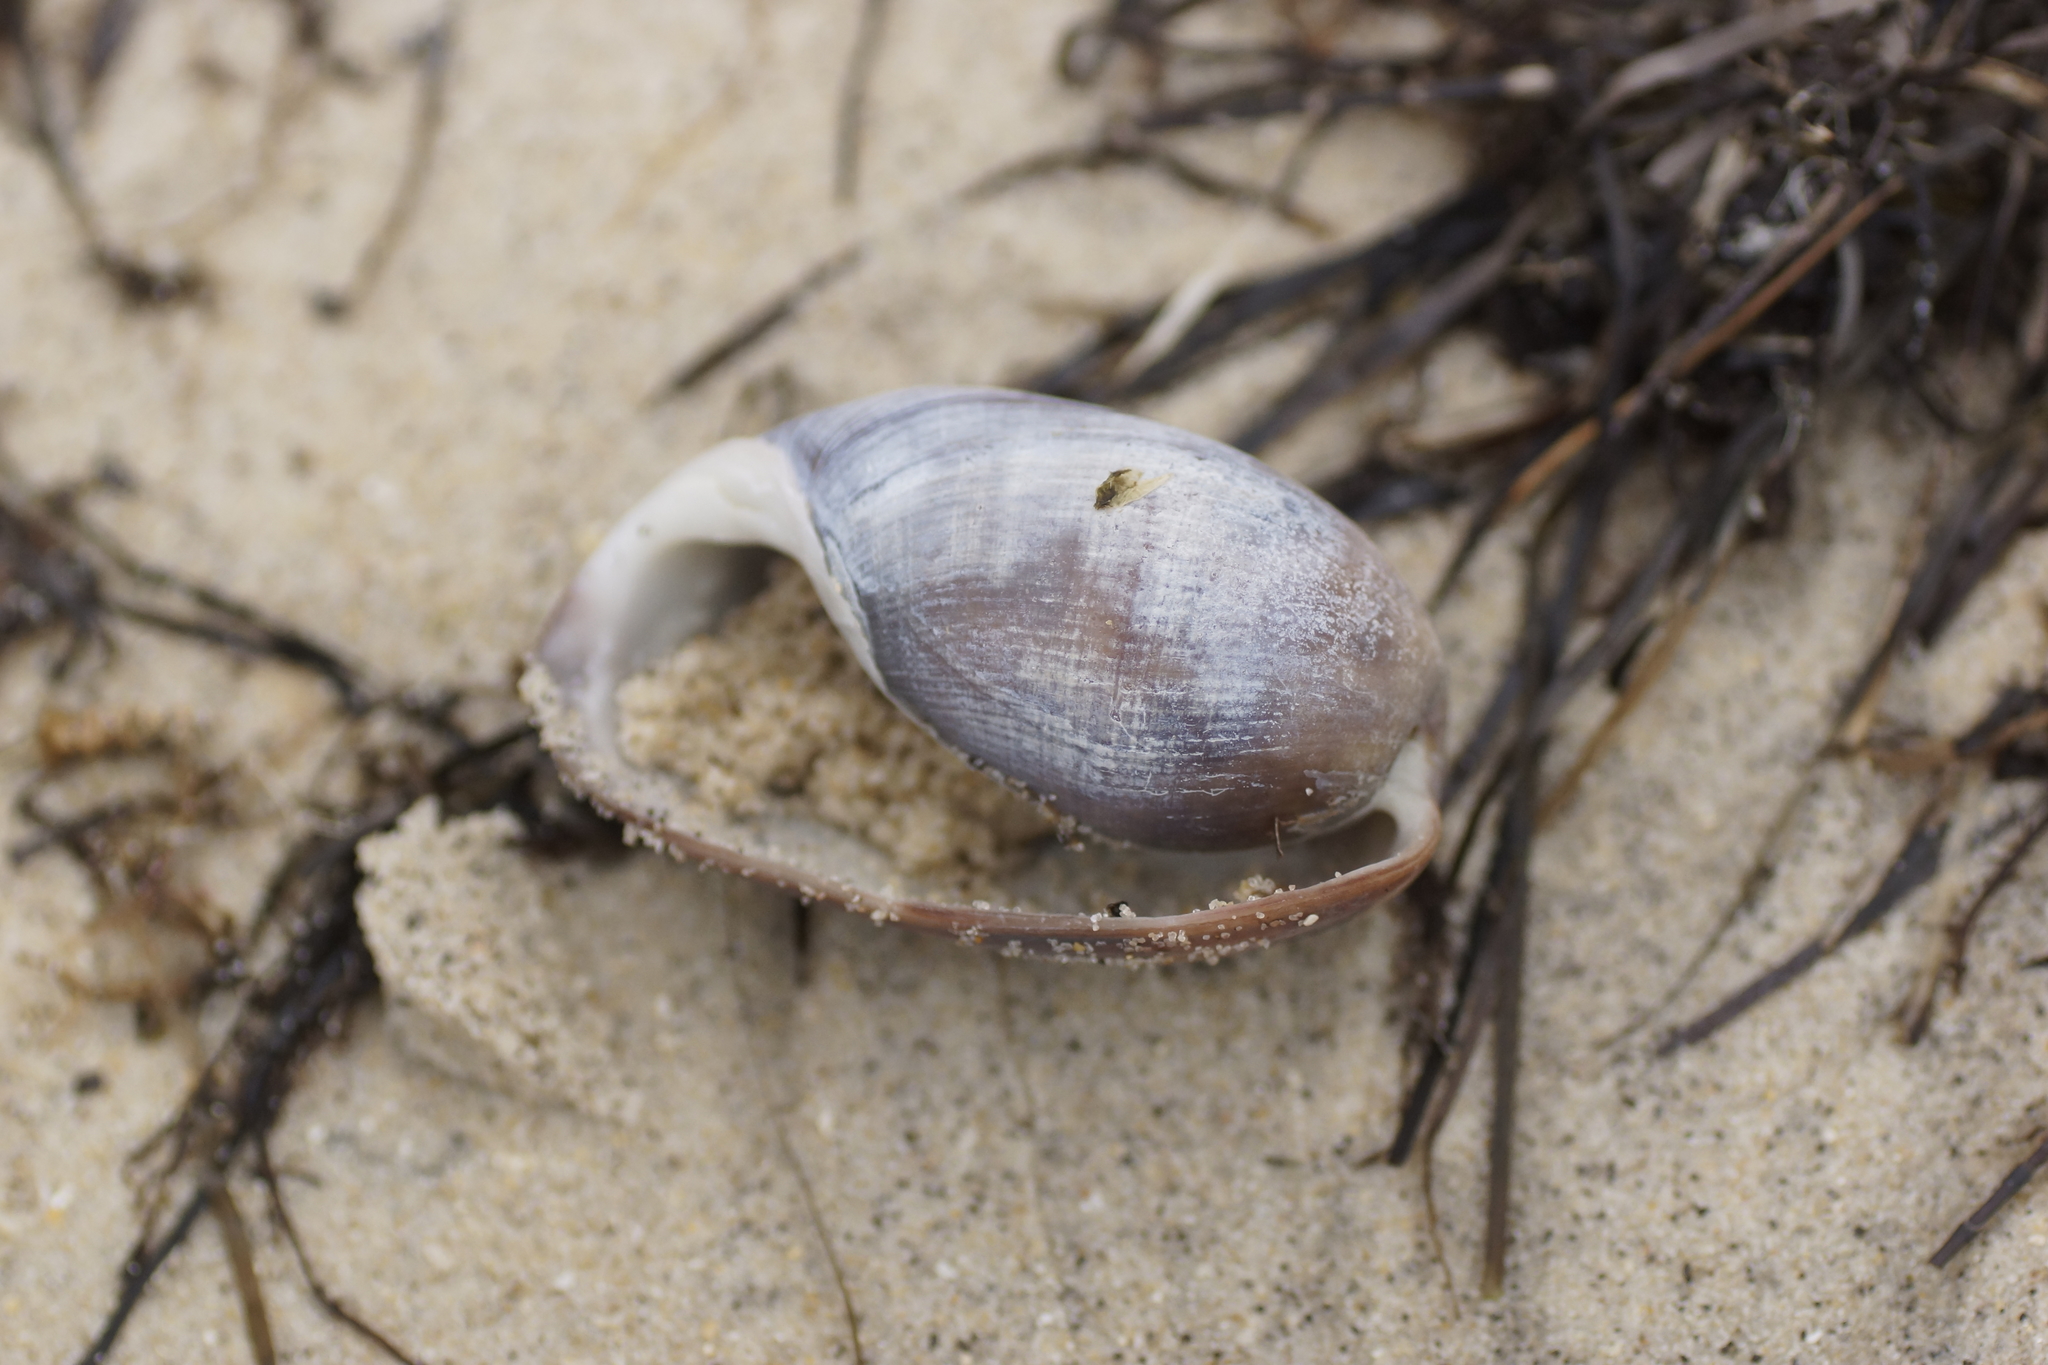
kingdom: Animalia
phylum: Mollusca
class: Gastropoda
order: Cephalaspidea
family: Bullidae
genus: Bulla
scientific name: Bulla quoyii
